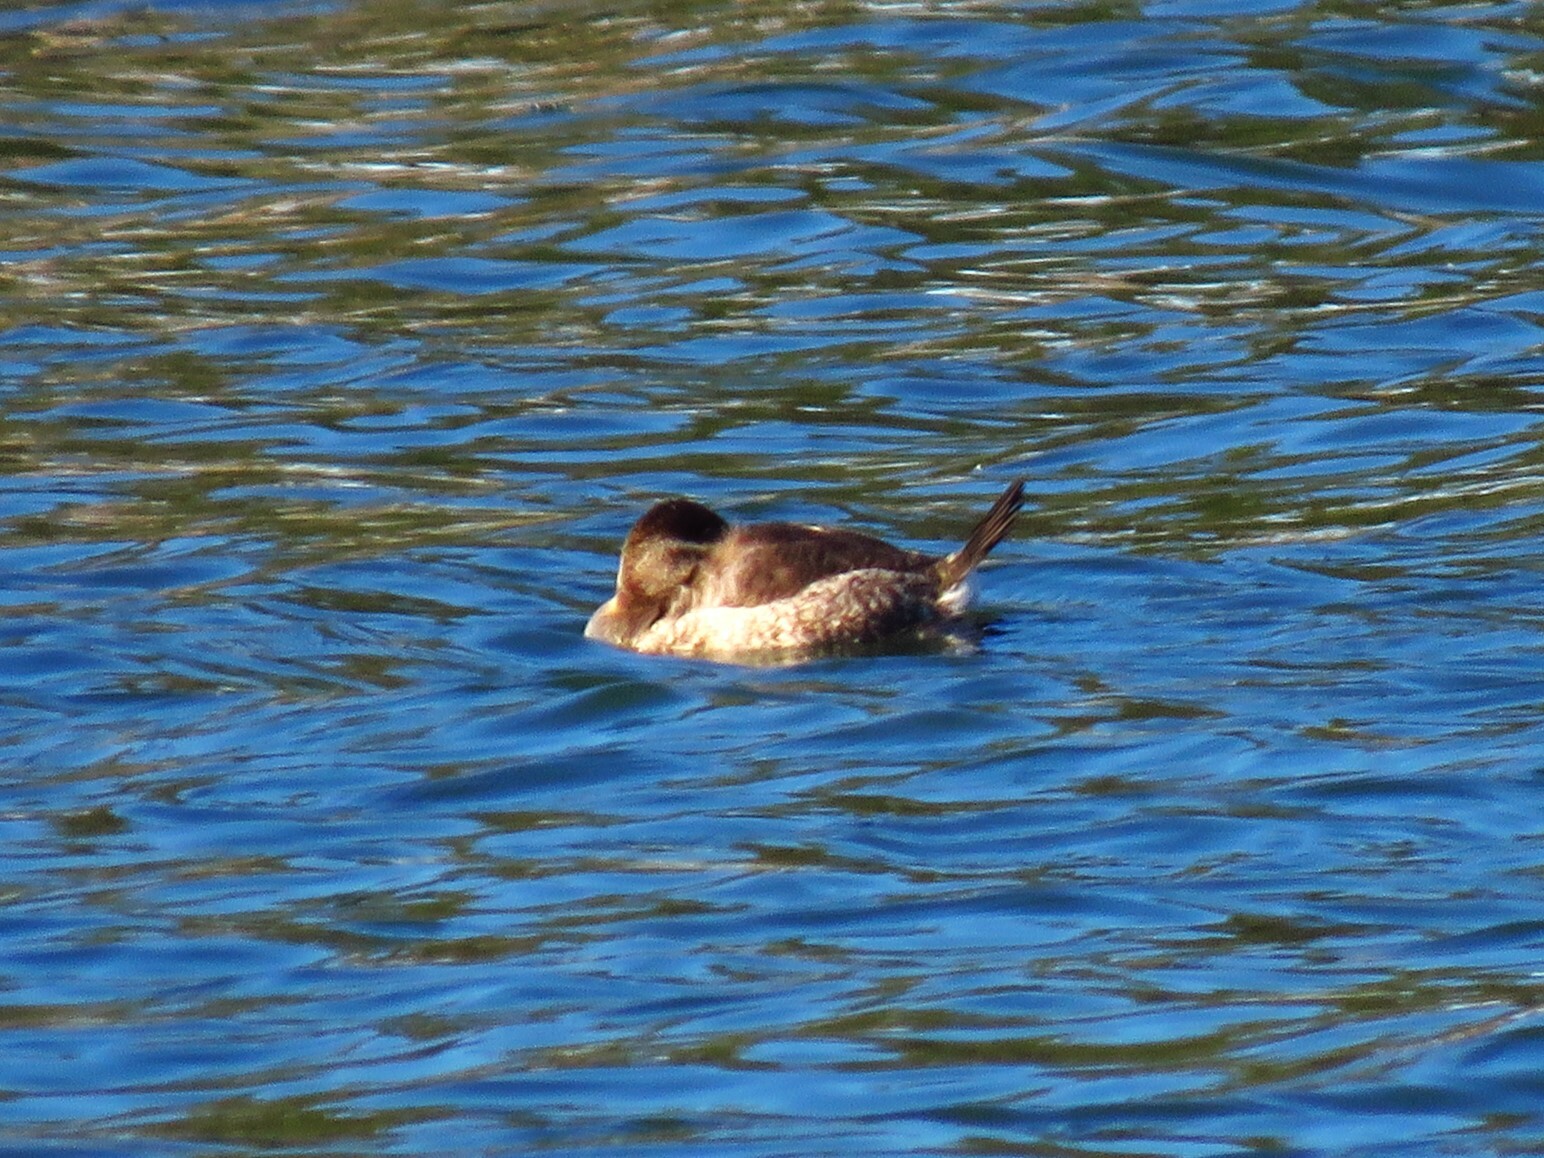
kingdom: Animalia
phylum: Chordata
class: Aves
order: Anseriformes
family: Anatidae
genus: Oxyura
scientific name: Oxyura jamaicensis
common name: Ruddy duck
